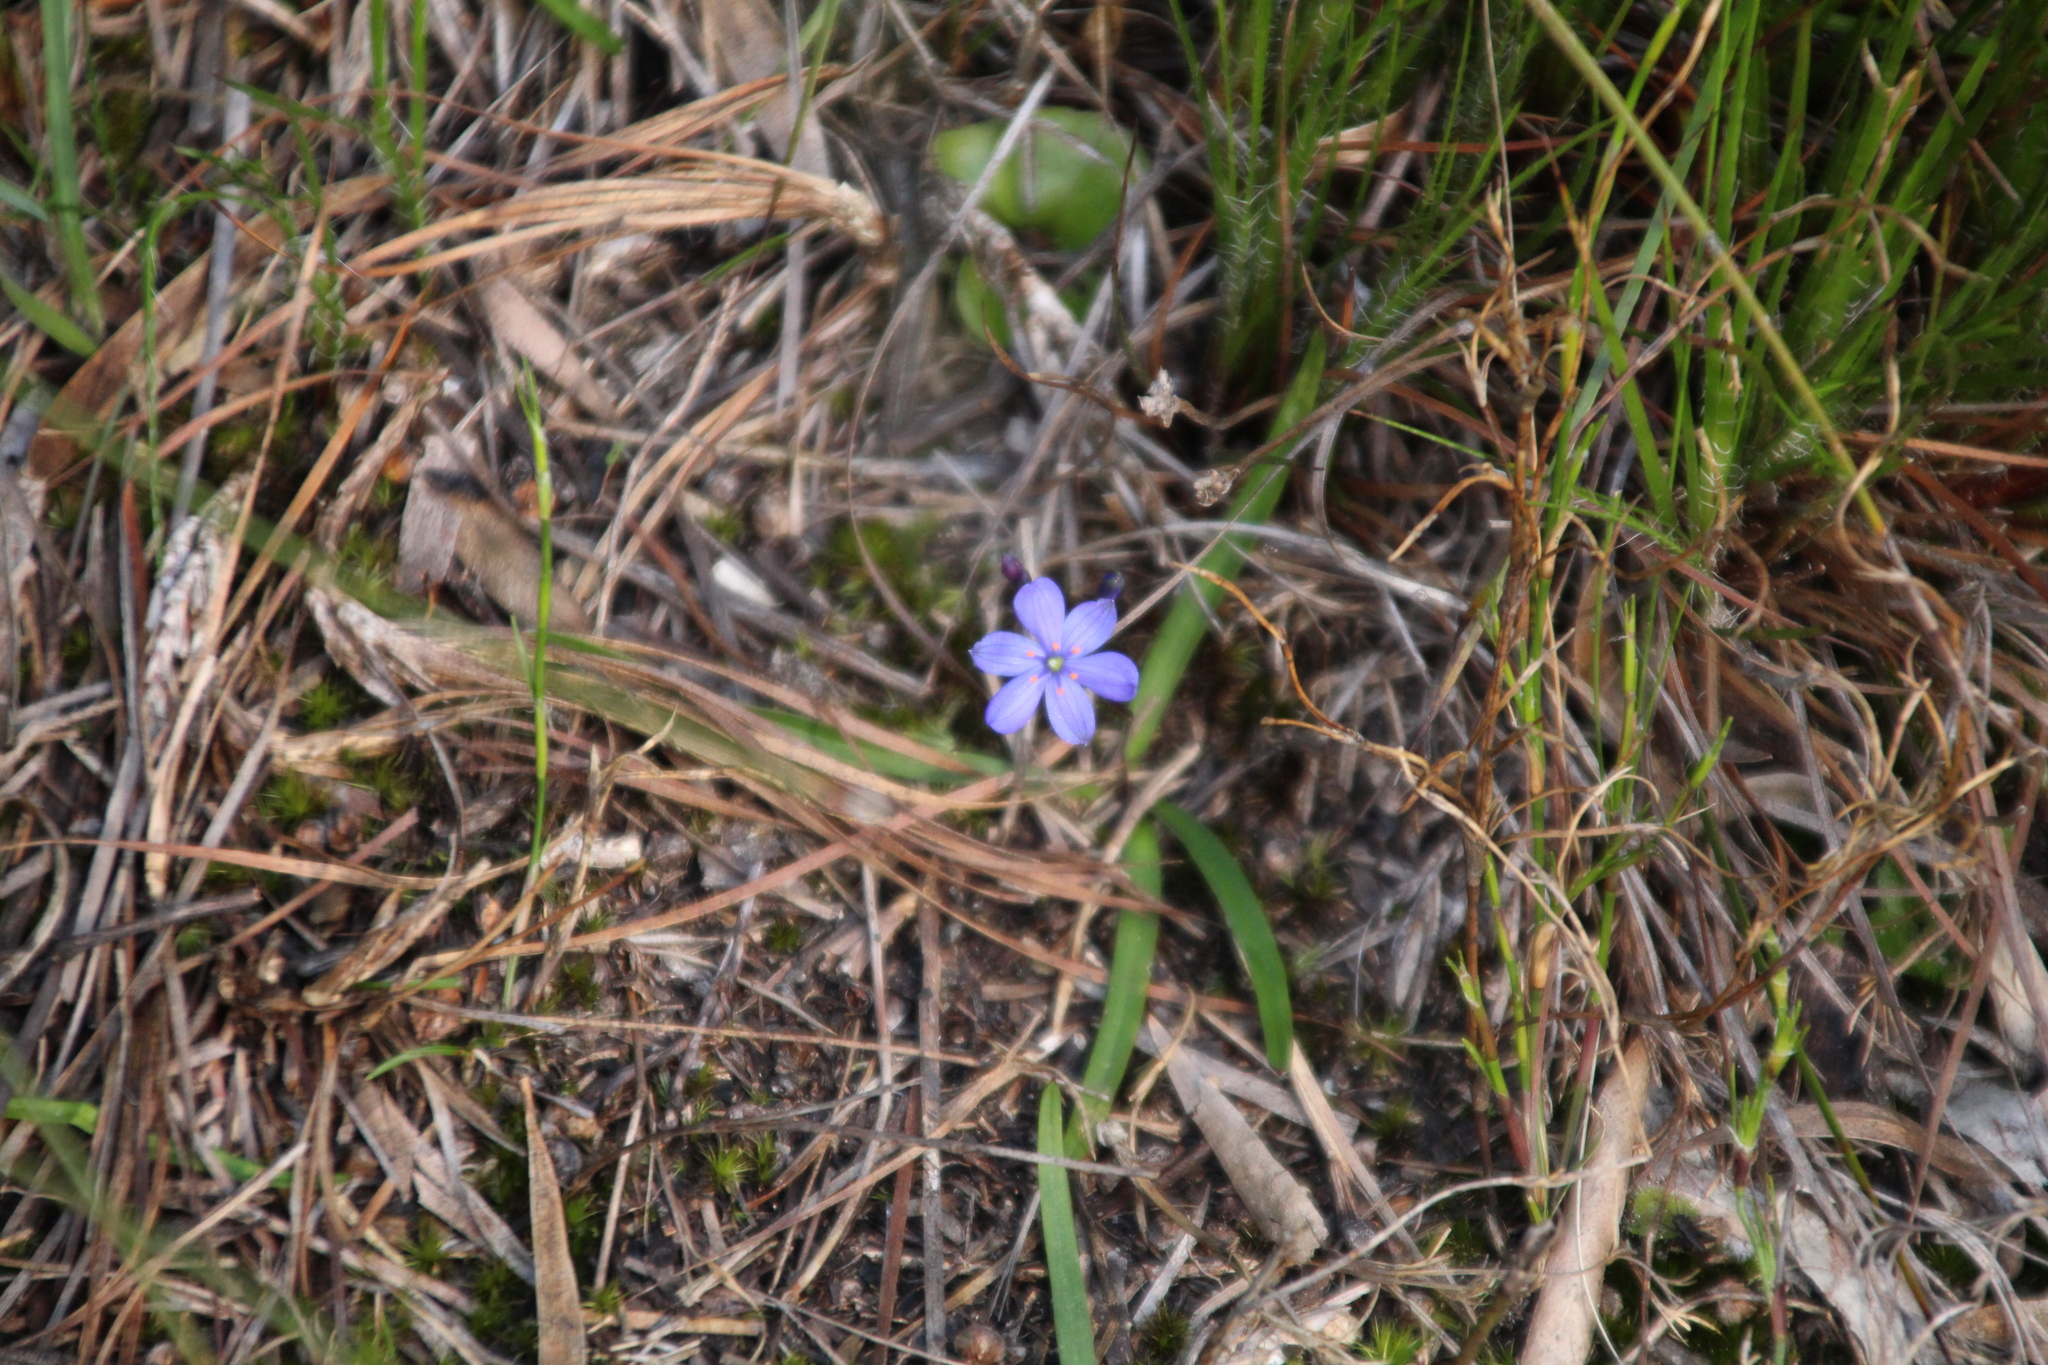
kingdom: Plantae
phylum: Tracheophyta
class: Liliopsida
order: Asparagales
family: Asphodelaceae
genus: Chamaescilla
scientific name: Chamaescilla corymbosa
